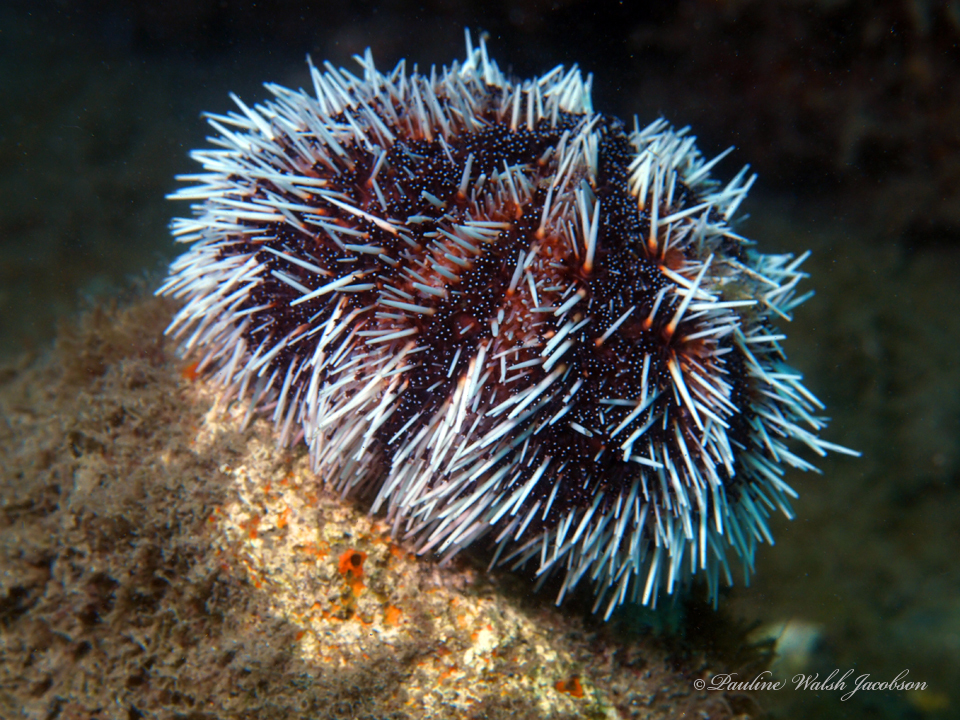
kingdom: Animalia
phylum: Echinodermata
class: Echinoidea
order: Camarodonta
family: Toxopneustidae
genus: Tripneustes
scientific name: Tripneustes ventricosus
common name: West indian sea egg
